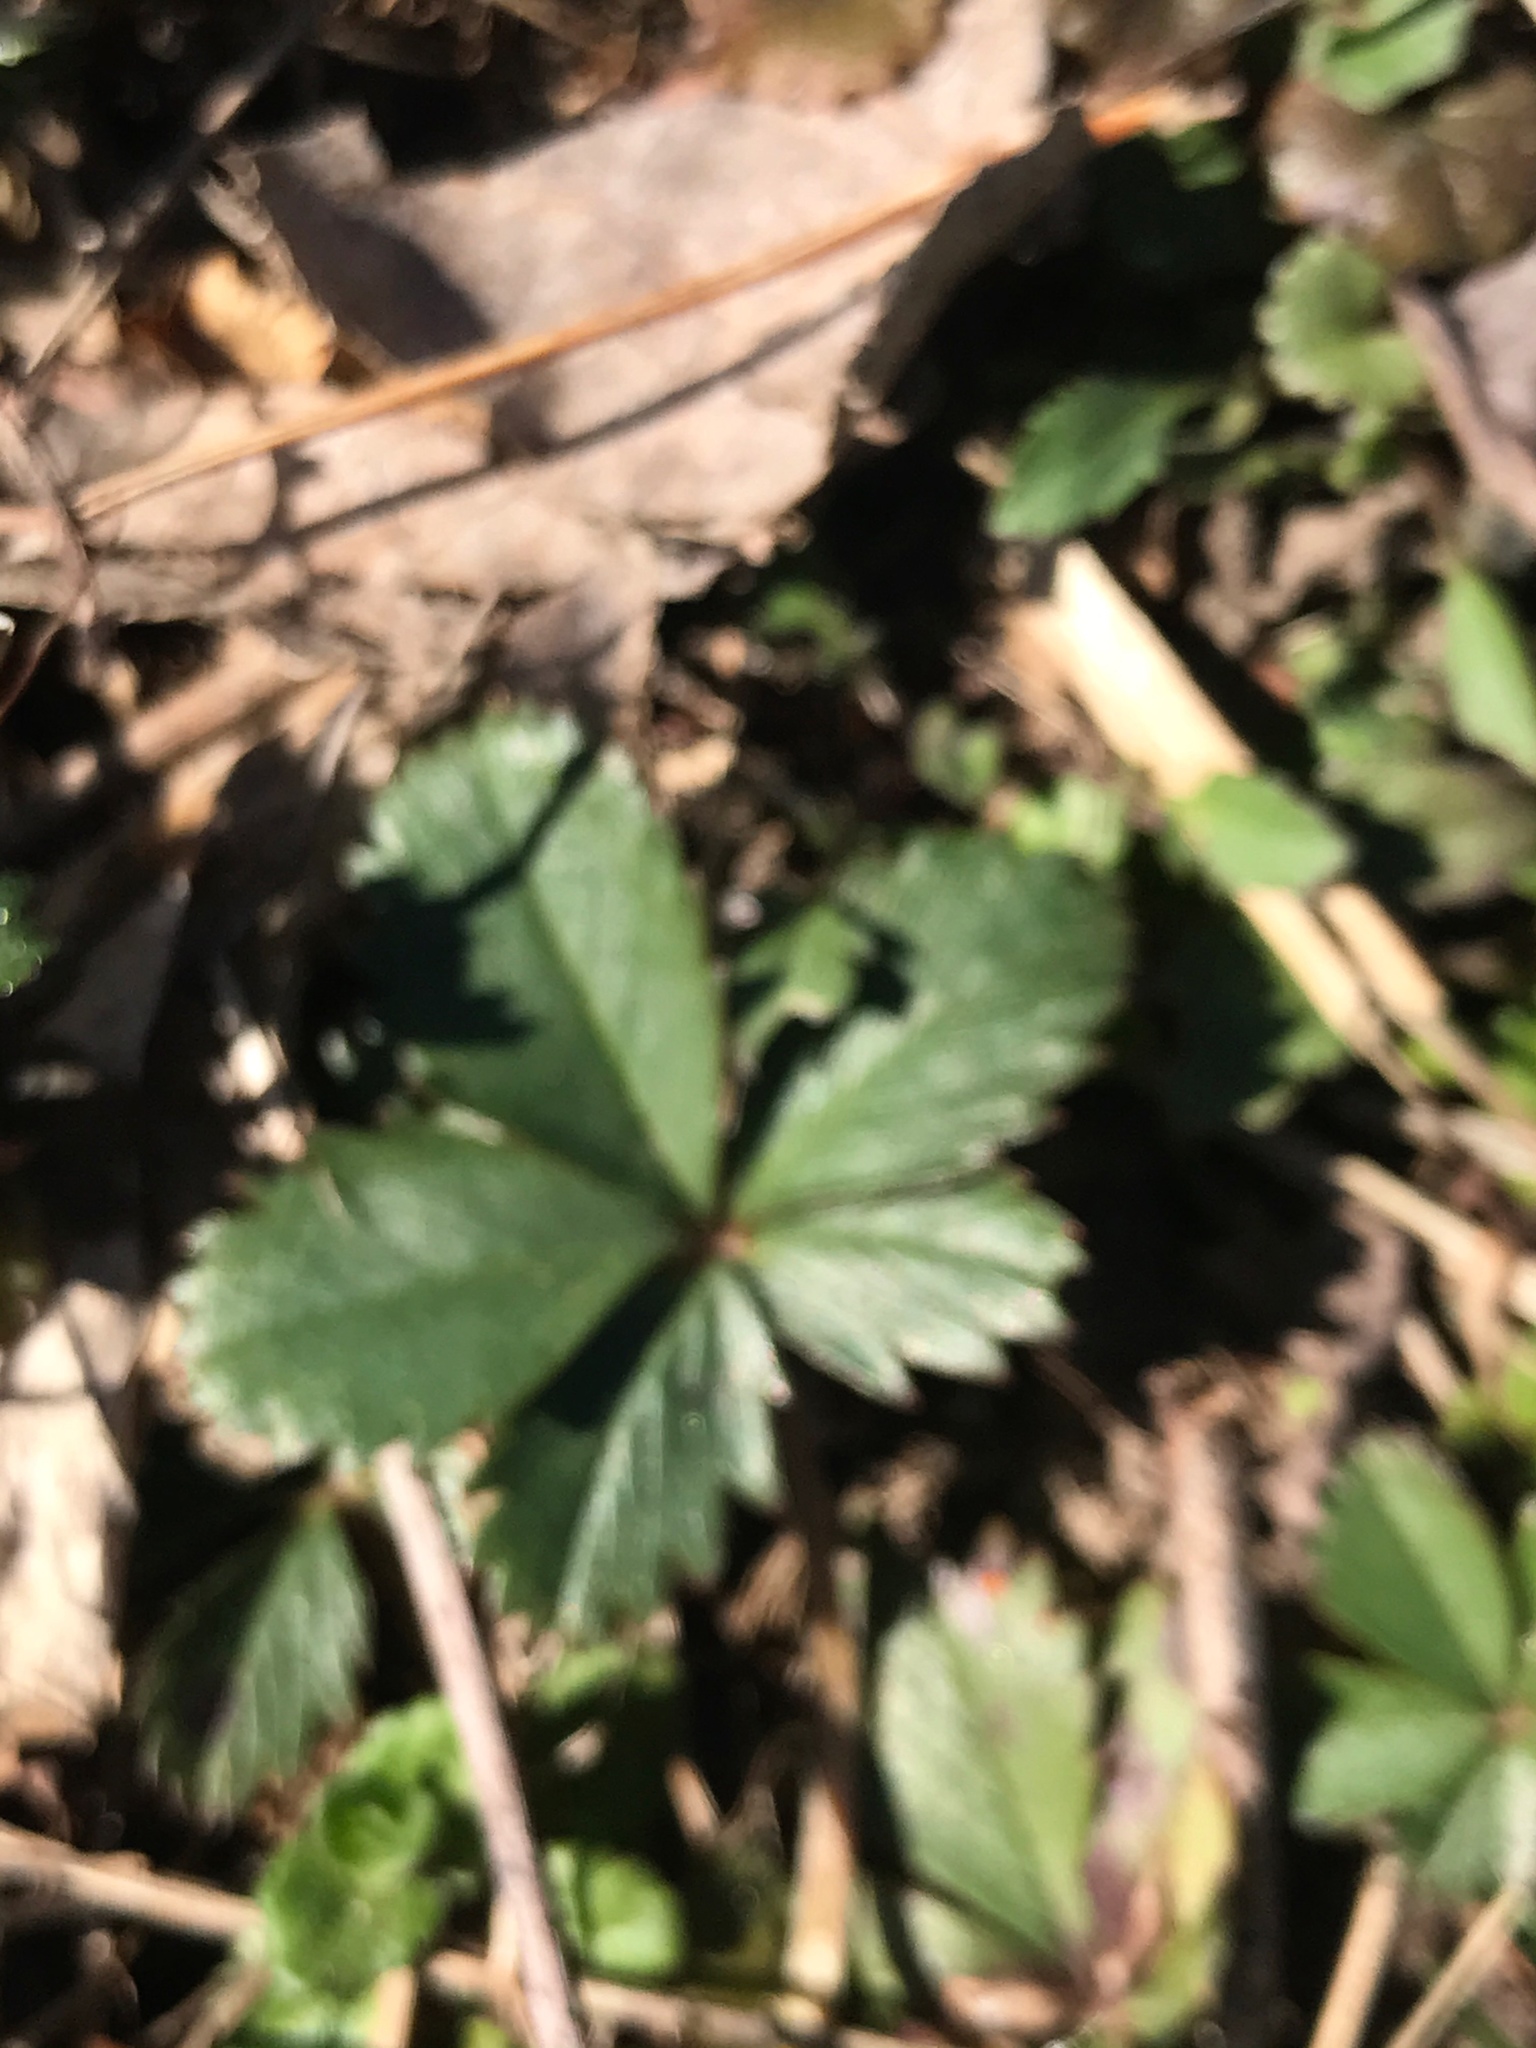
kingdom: Plantae
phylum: Tracheophyta
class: Magnoliopsida
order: Rosales
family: Rosaceae
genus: Potentilla
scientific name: Potentilla canadensis
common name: Canada cinquefoil
